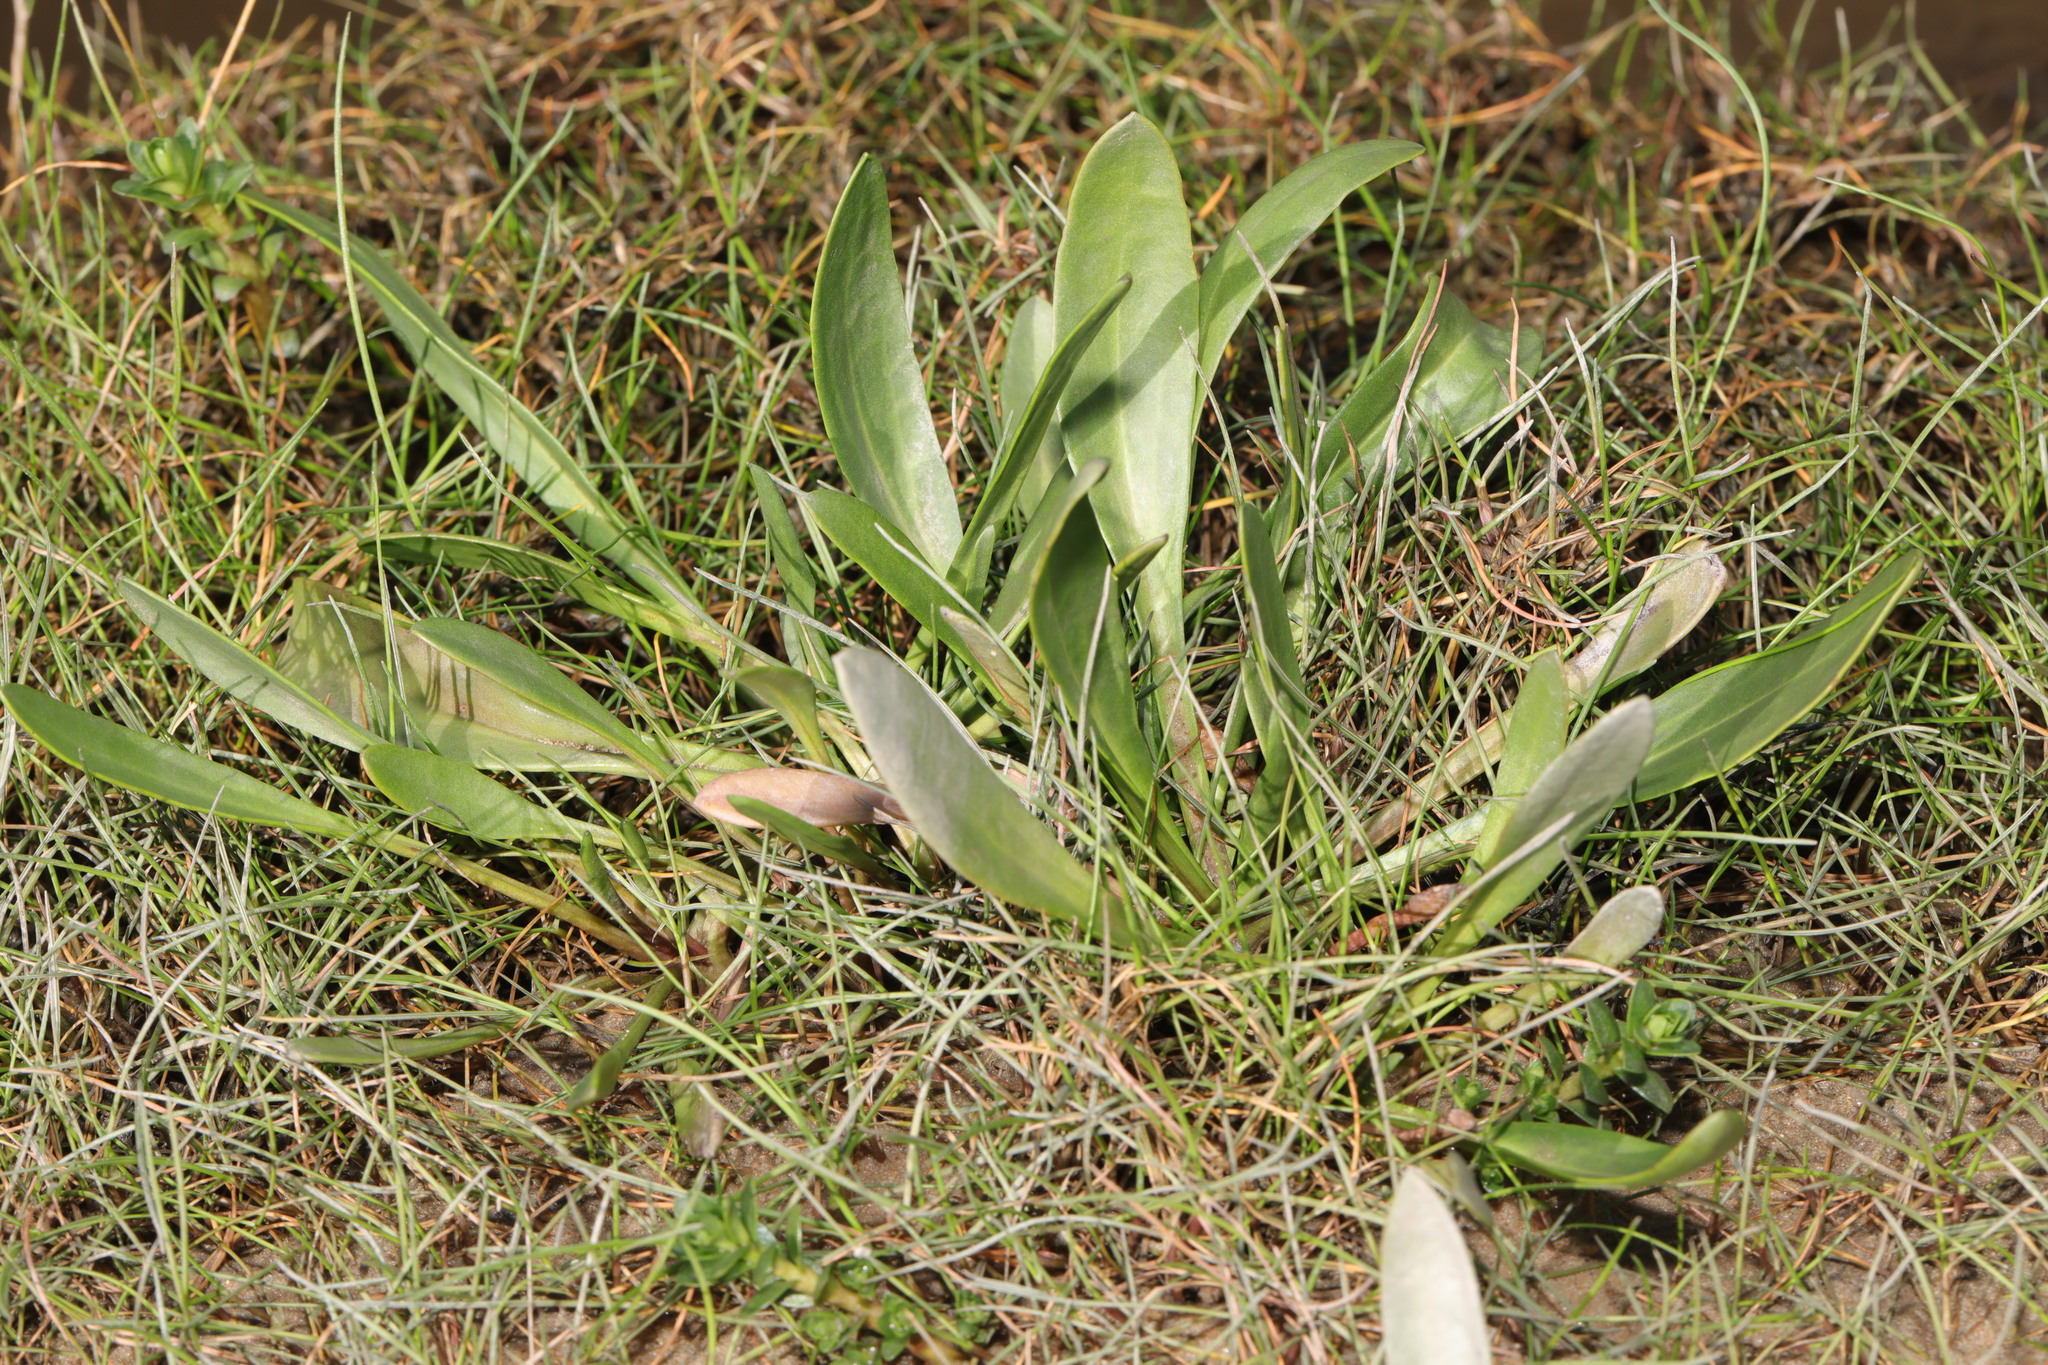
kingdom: Plantae
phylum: Tracheophyta
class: Magnoliopsida
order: Asterales
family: Asteraceae
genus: Tripolium
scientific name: Tripolium pannonicum
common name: Sea aster
